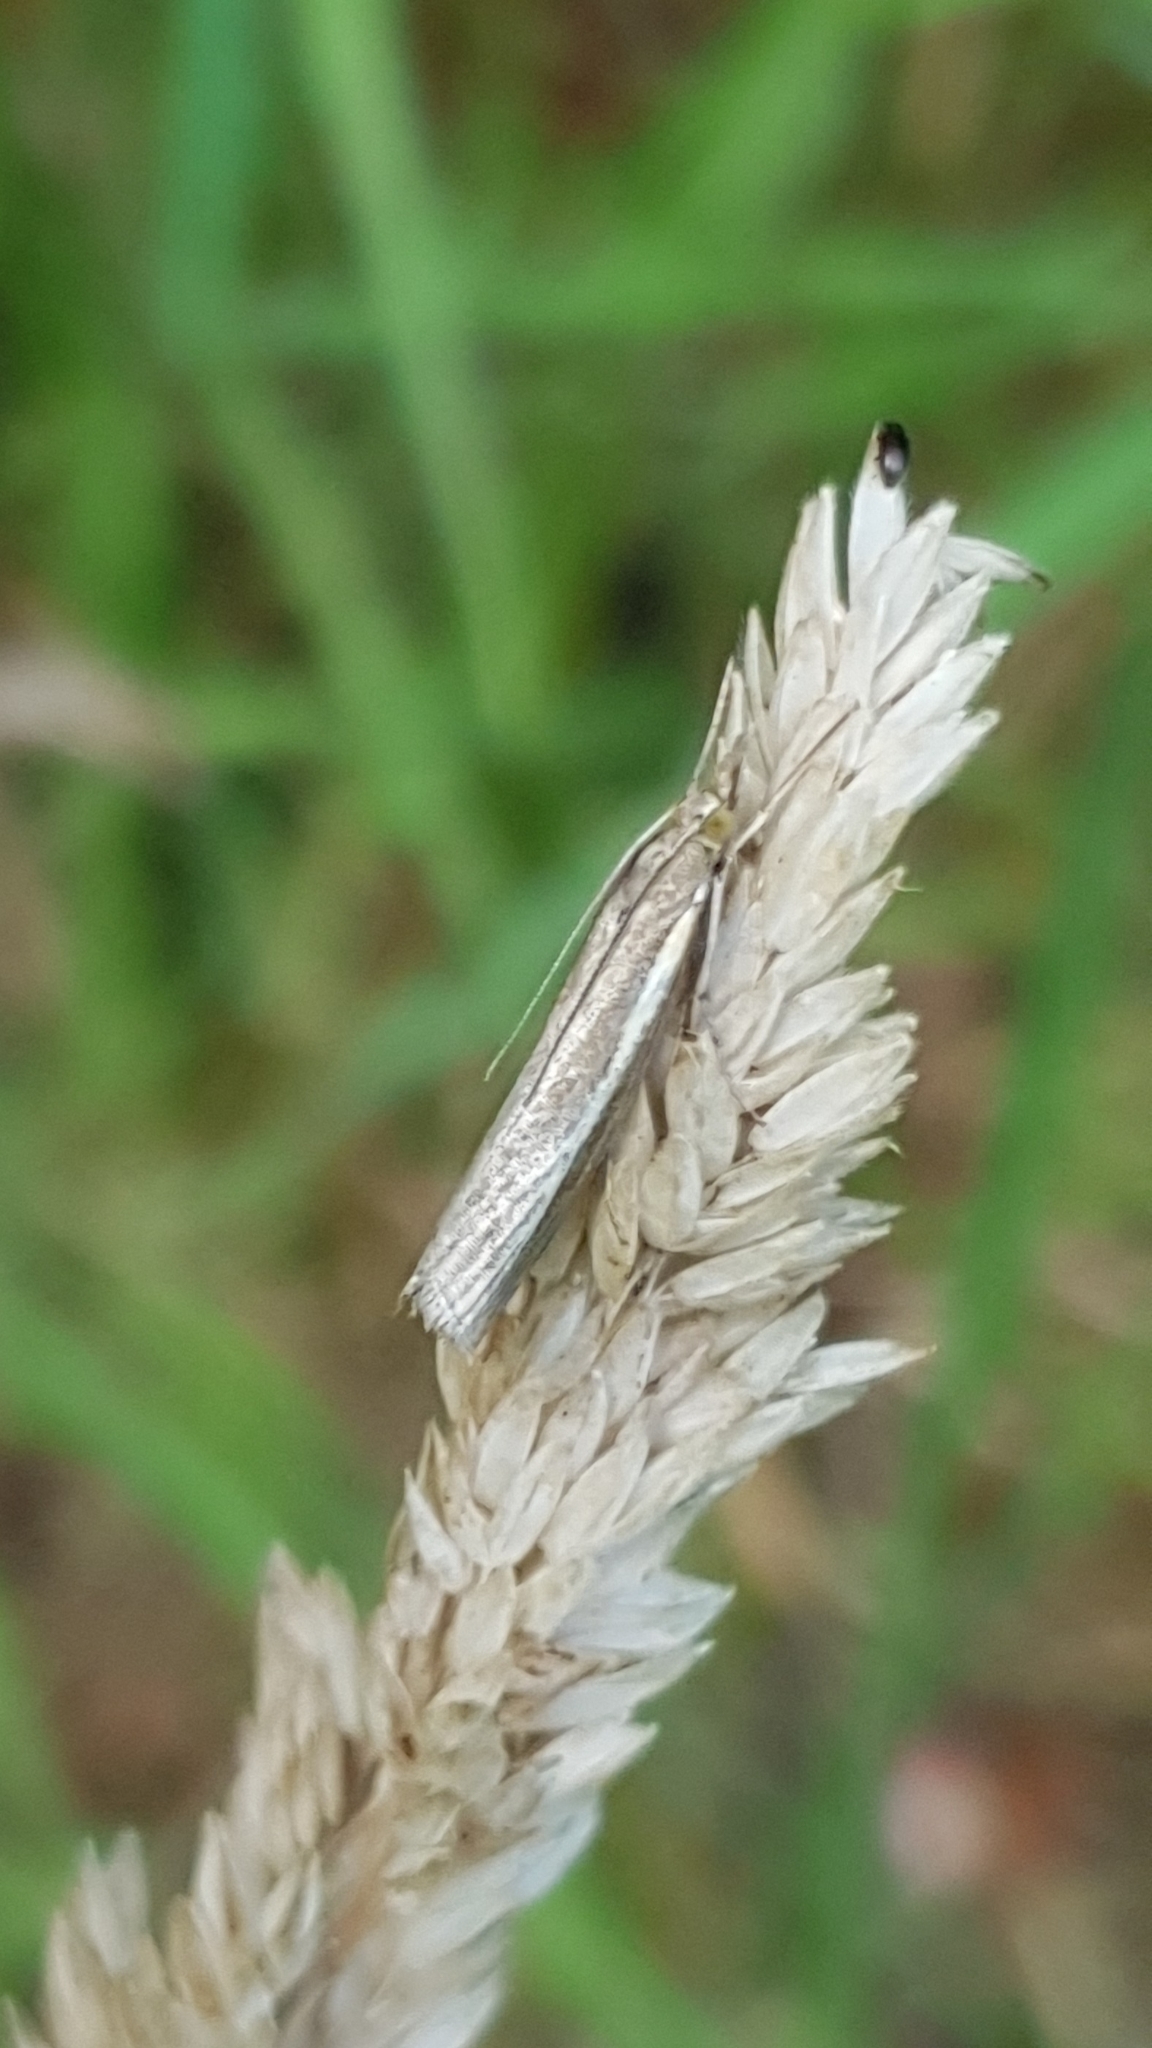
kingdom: Animalia
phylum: Arthropoda
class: Insecta
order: Lepidoptera
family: Crambidae
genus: Agriphila
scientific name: Agriphila tristellus
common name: Common grass-veneer
